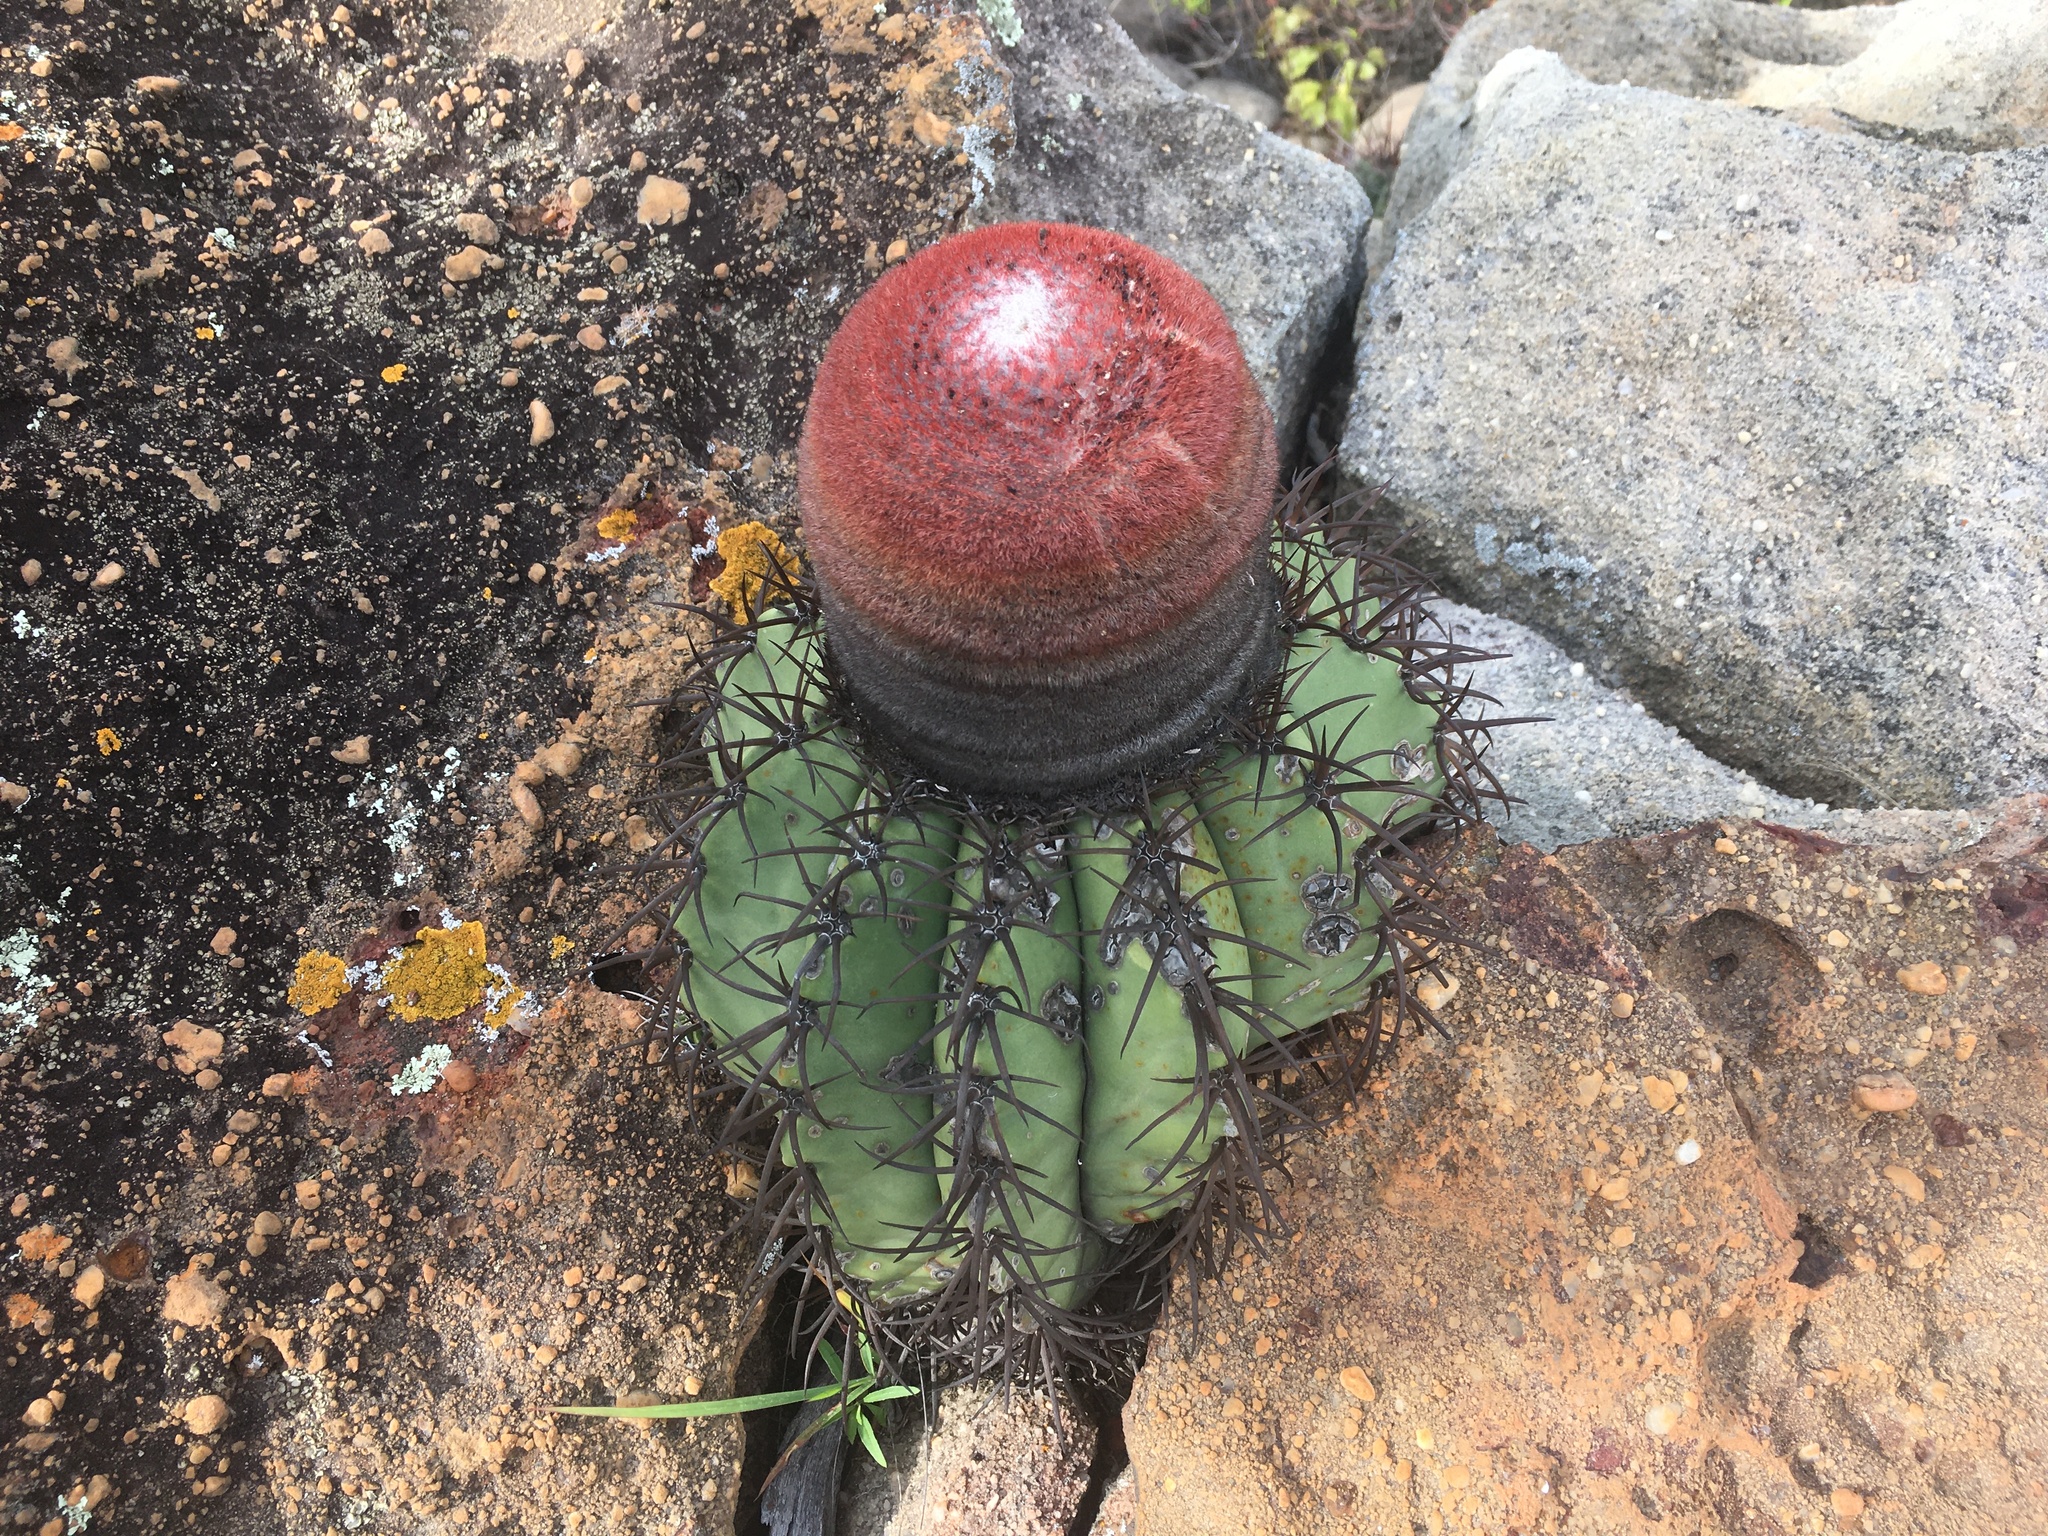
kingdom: Plantae
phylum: Tracheophyta
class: Magnoliopsida
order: Caryophyllales
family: Cactaceae
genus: Melocactus
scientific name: Melocactus zehntneri
